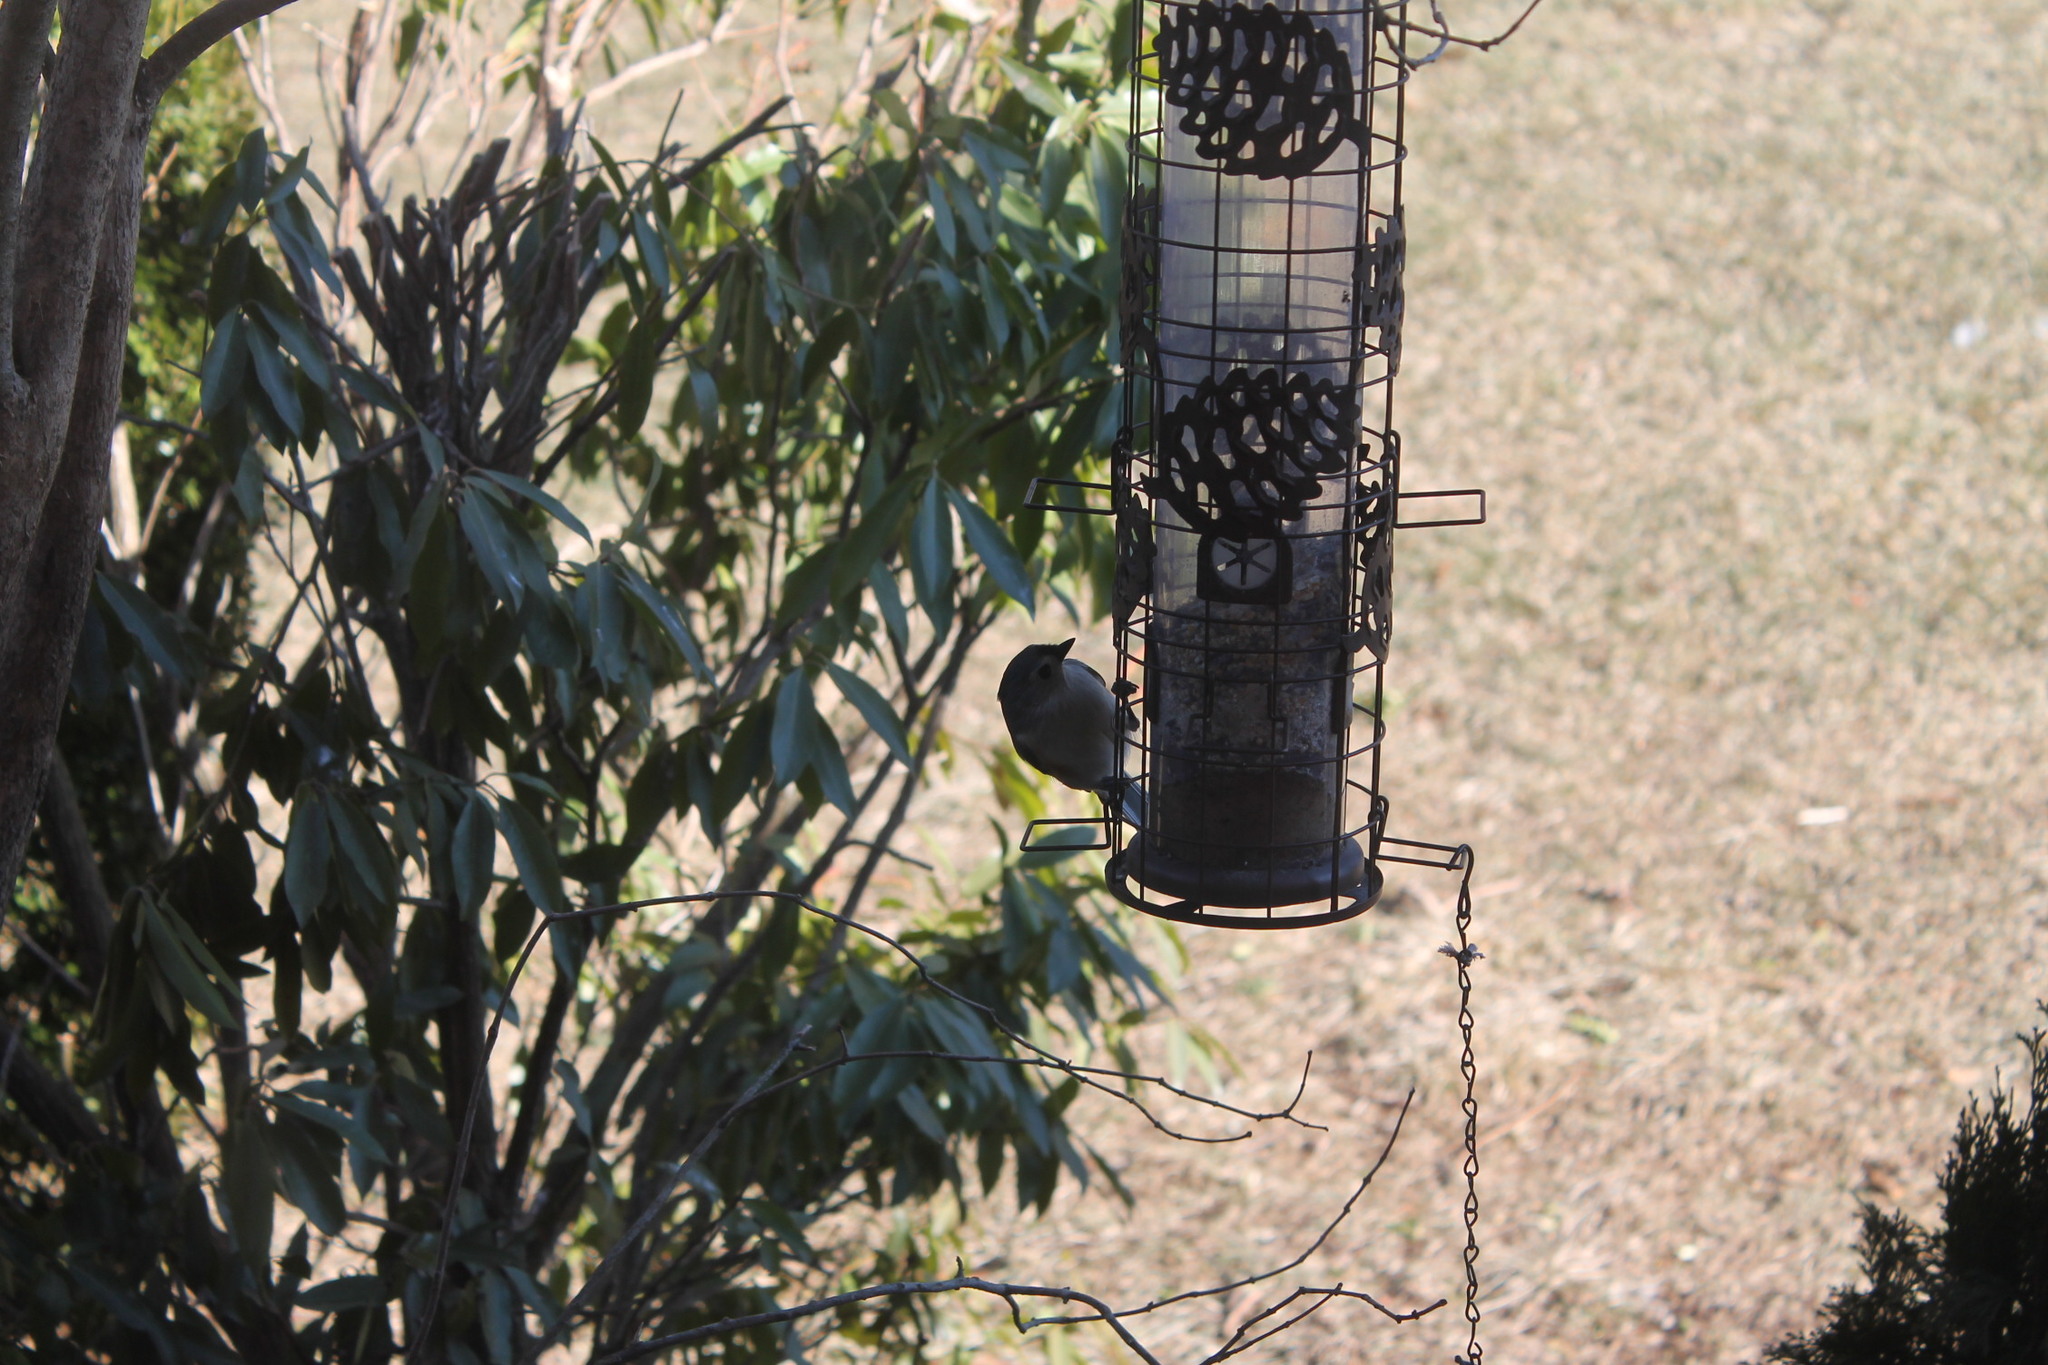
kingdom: Animalia
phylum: Chordata
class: Aves
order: Passeriformes
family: Paridae
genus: Baeolophus
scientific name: Baeolophus bicolor
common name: Tufted titmouse
